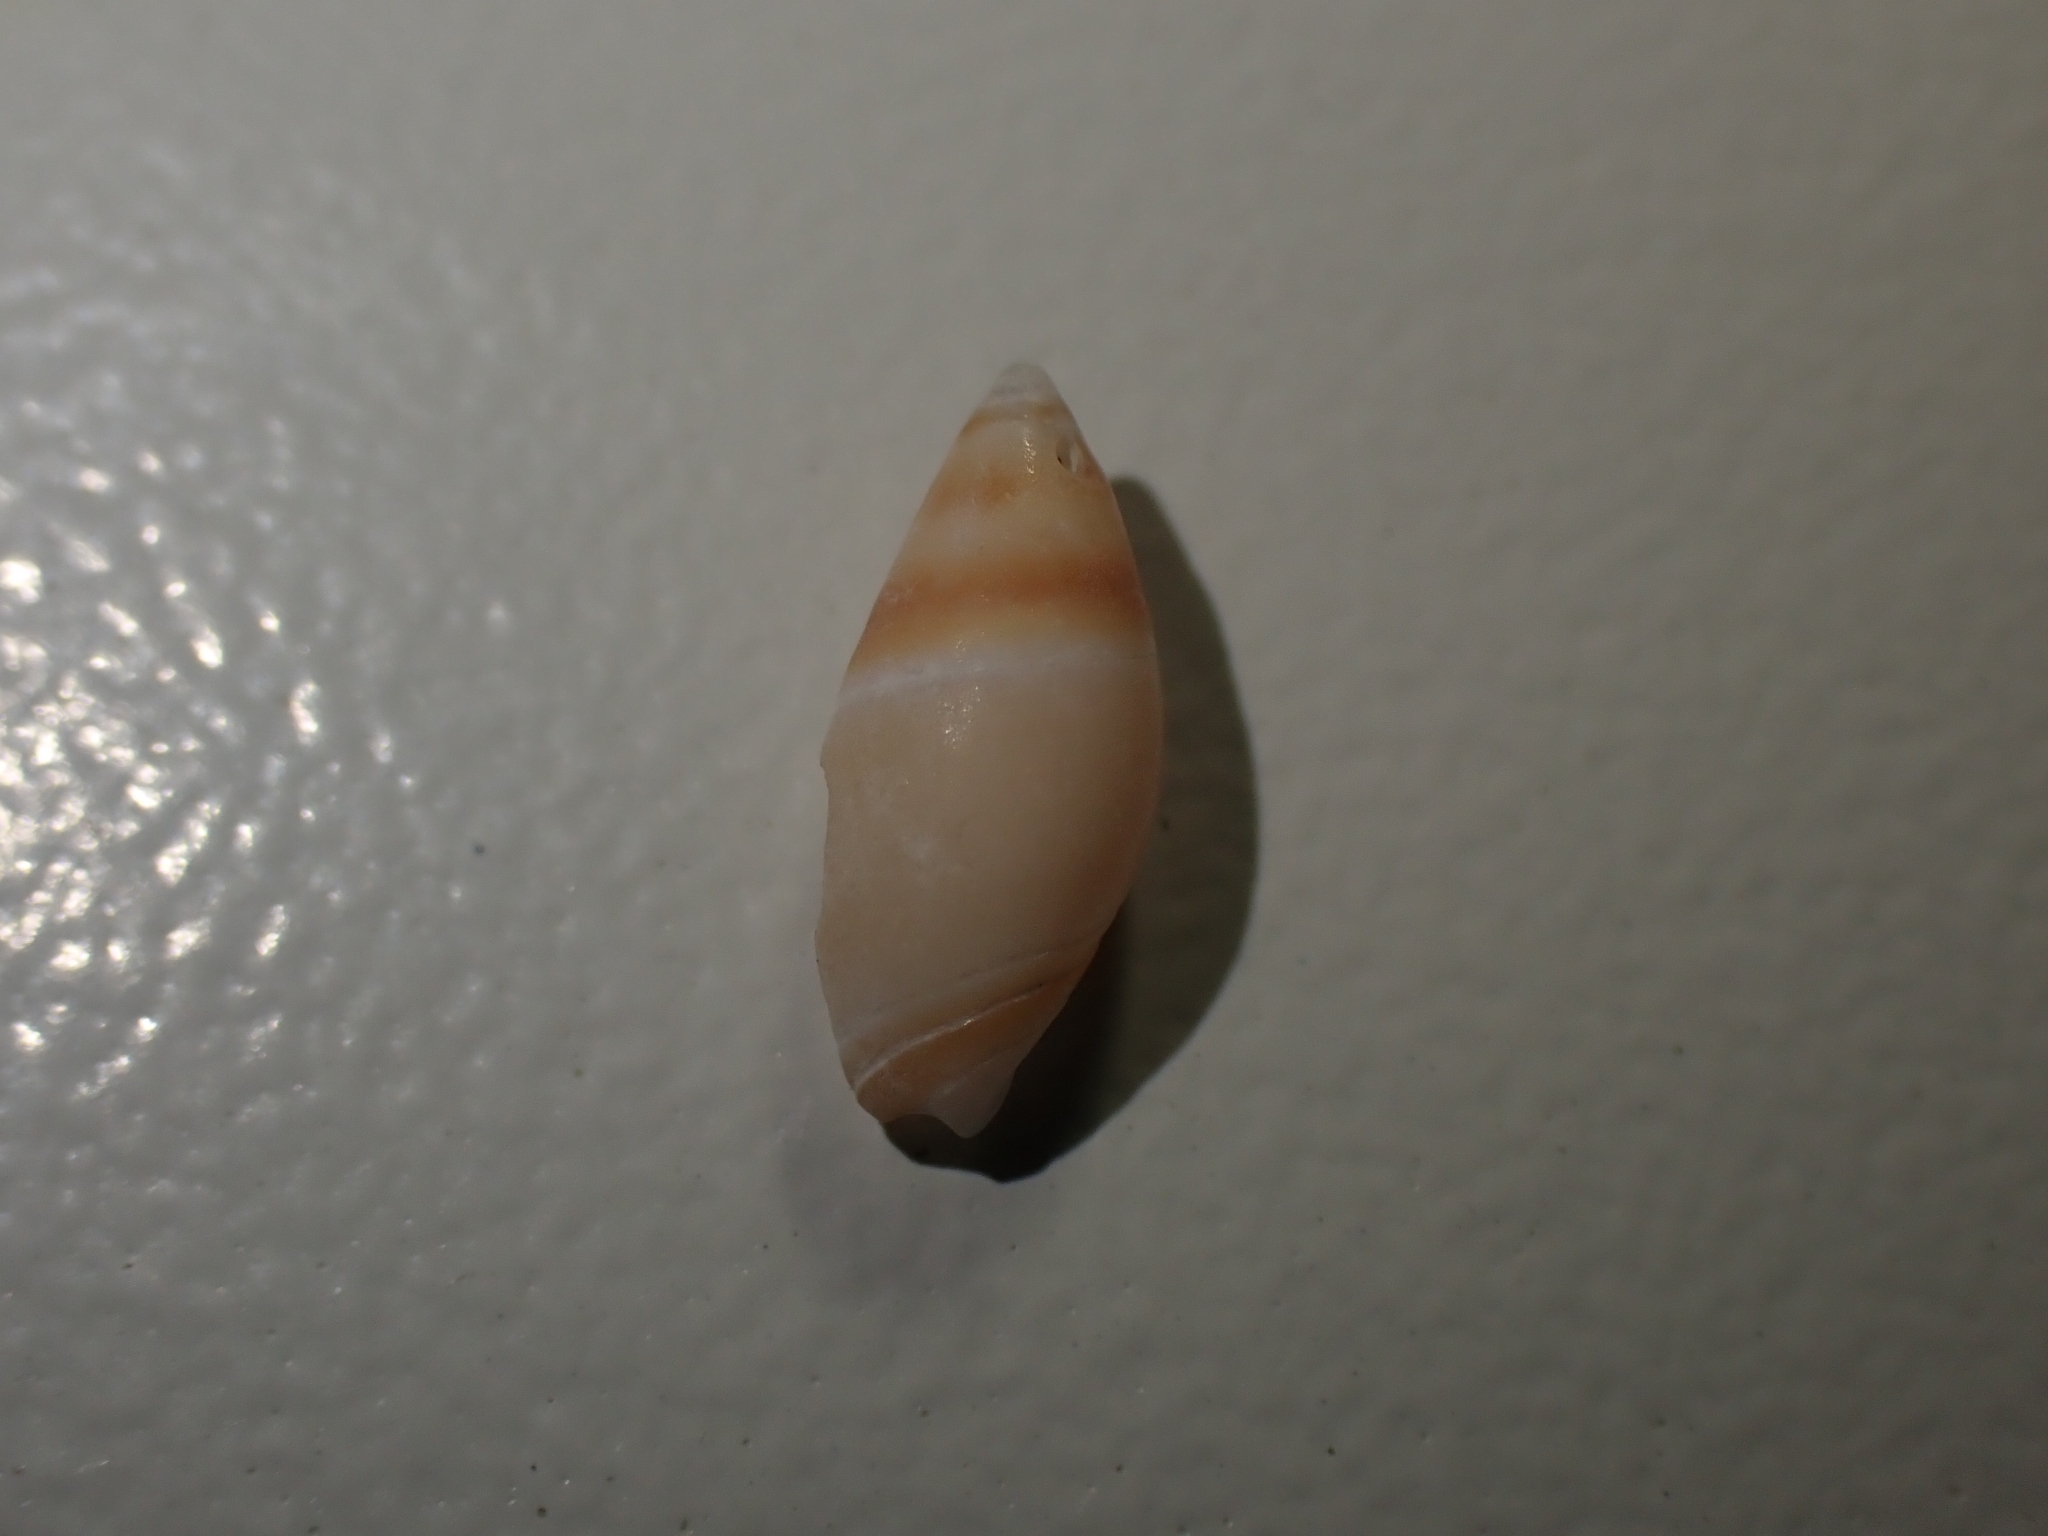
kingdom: Animalia
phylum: Mollusca
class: Gastropoda
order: Neogastropoda
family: Ancillariidae
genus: Amalda
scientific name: Amalda novaezelandiae
